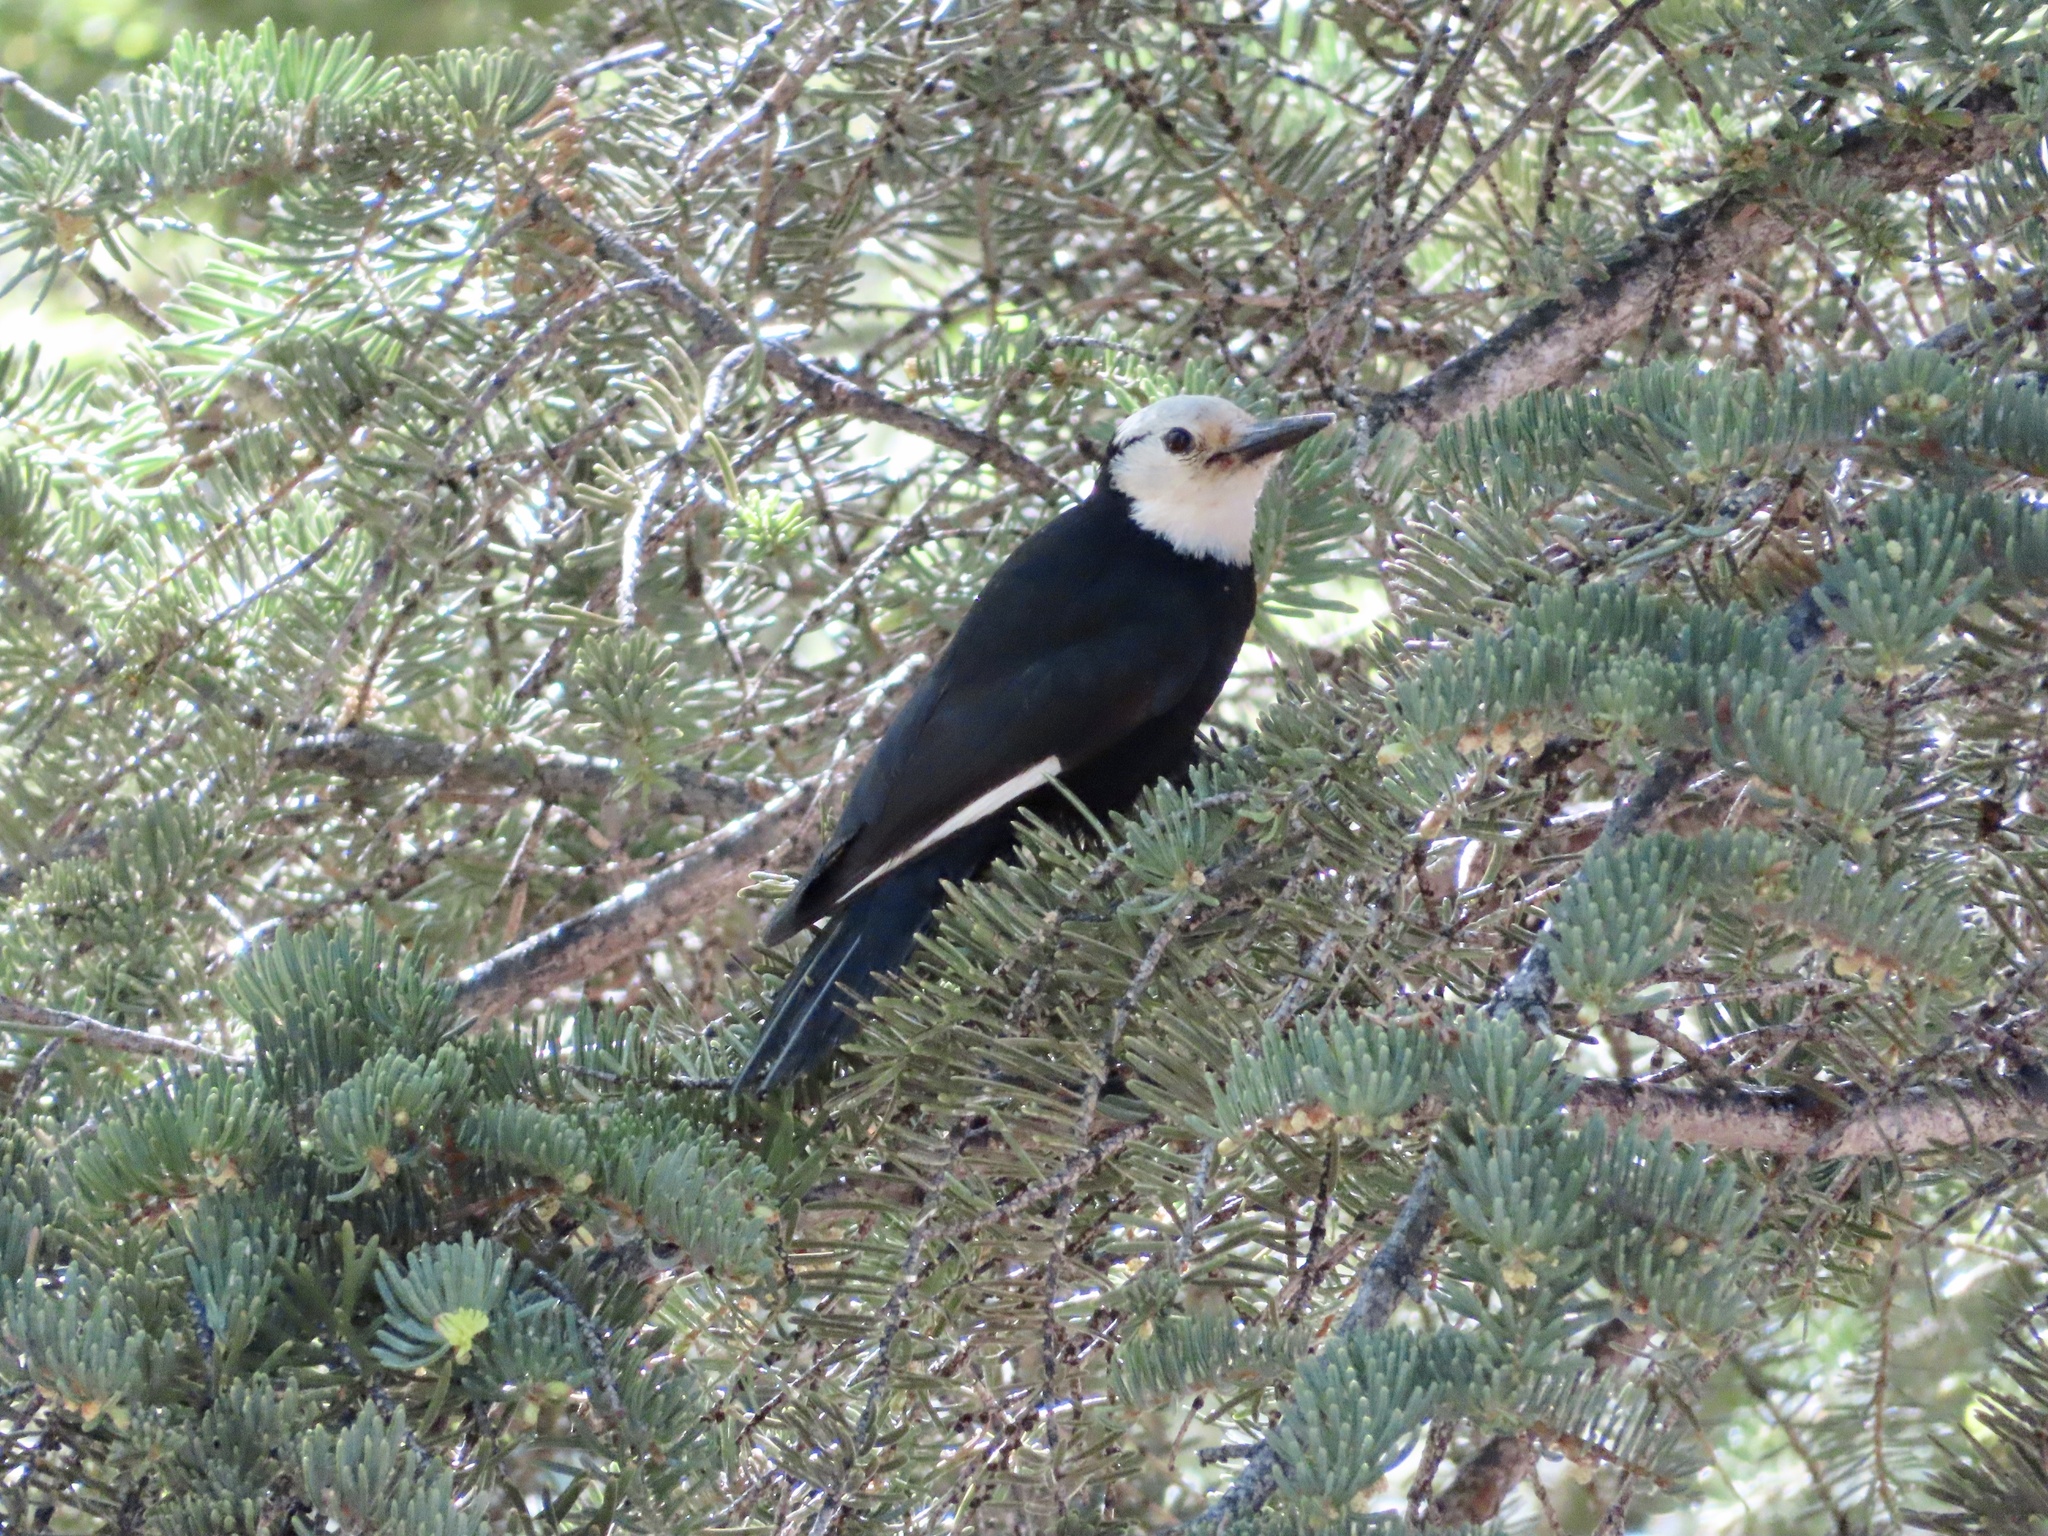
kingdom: Animalia
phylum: Chordata
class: Aves
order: Piciformes
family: Picidae
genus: Leuconotopicus
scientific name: Leuconotopicus albolarvatus
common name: White-headed woodpecker
